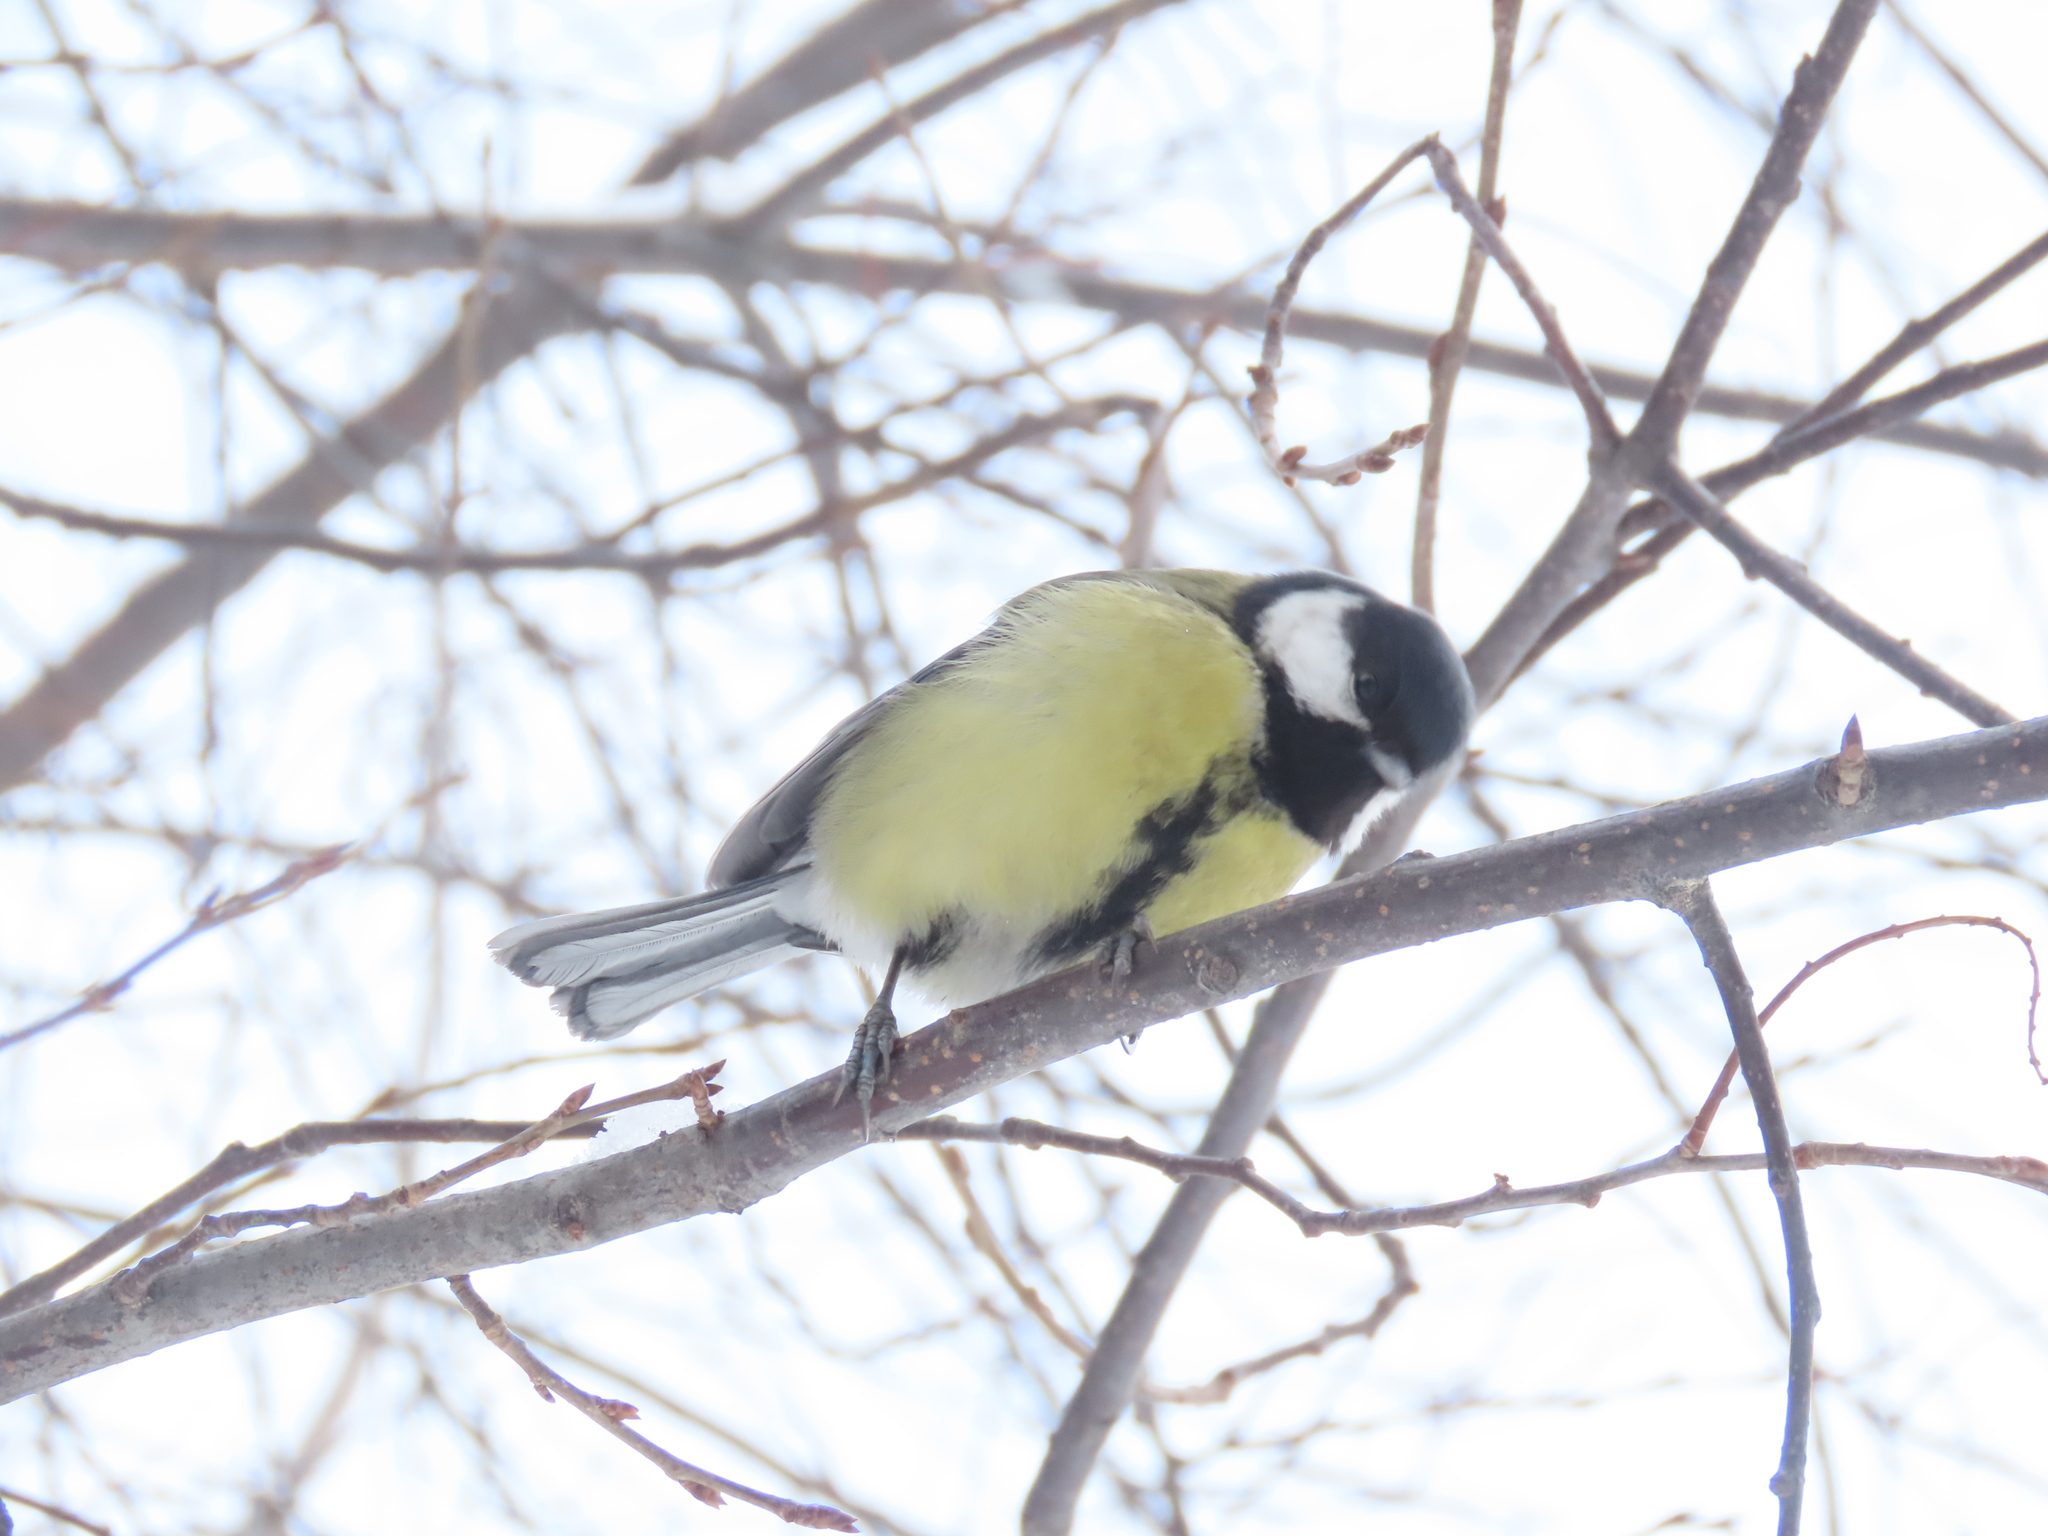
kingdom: Animalia
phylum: Chordata
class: Aves
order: Passeriformes
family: Paridae
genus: Parus
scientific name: Parus major
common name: Great tit
